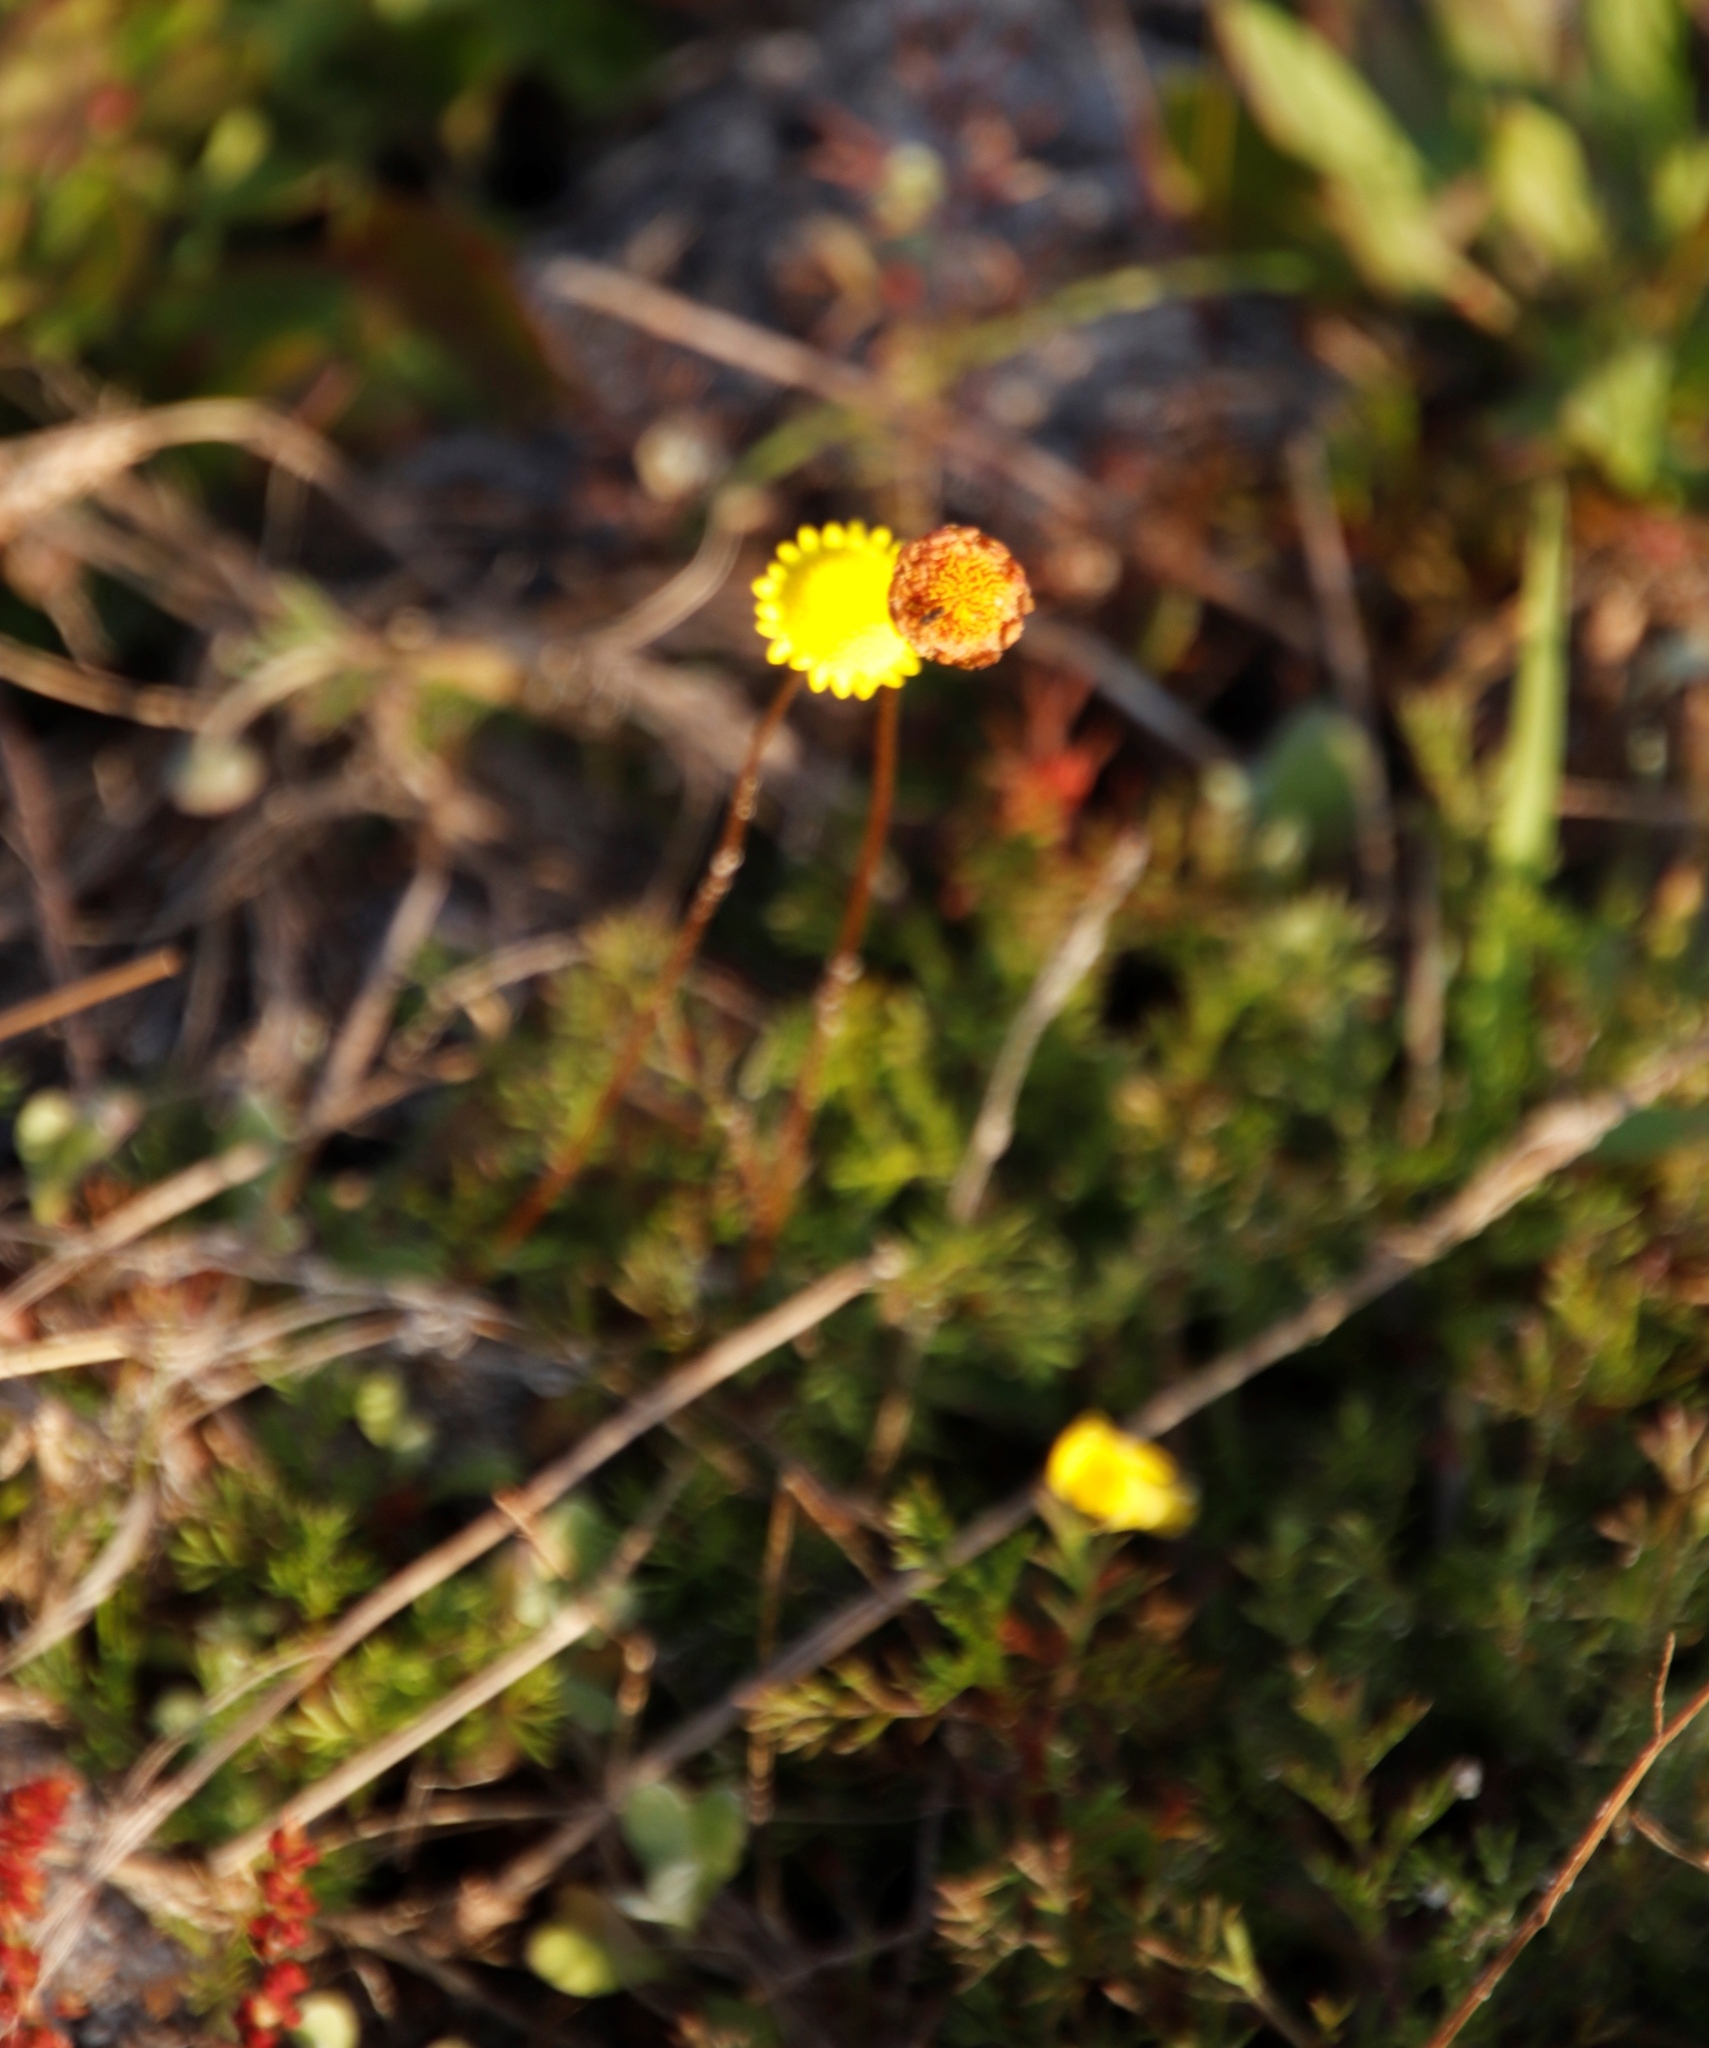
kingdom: Plantae
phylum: Tracheophyta
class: Magnoliopsida
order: Asterales
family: Asteraceae
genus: Cotula
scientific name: Cotula pruinosa
